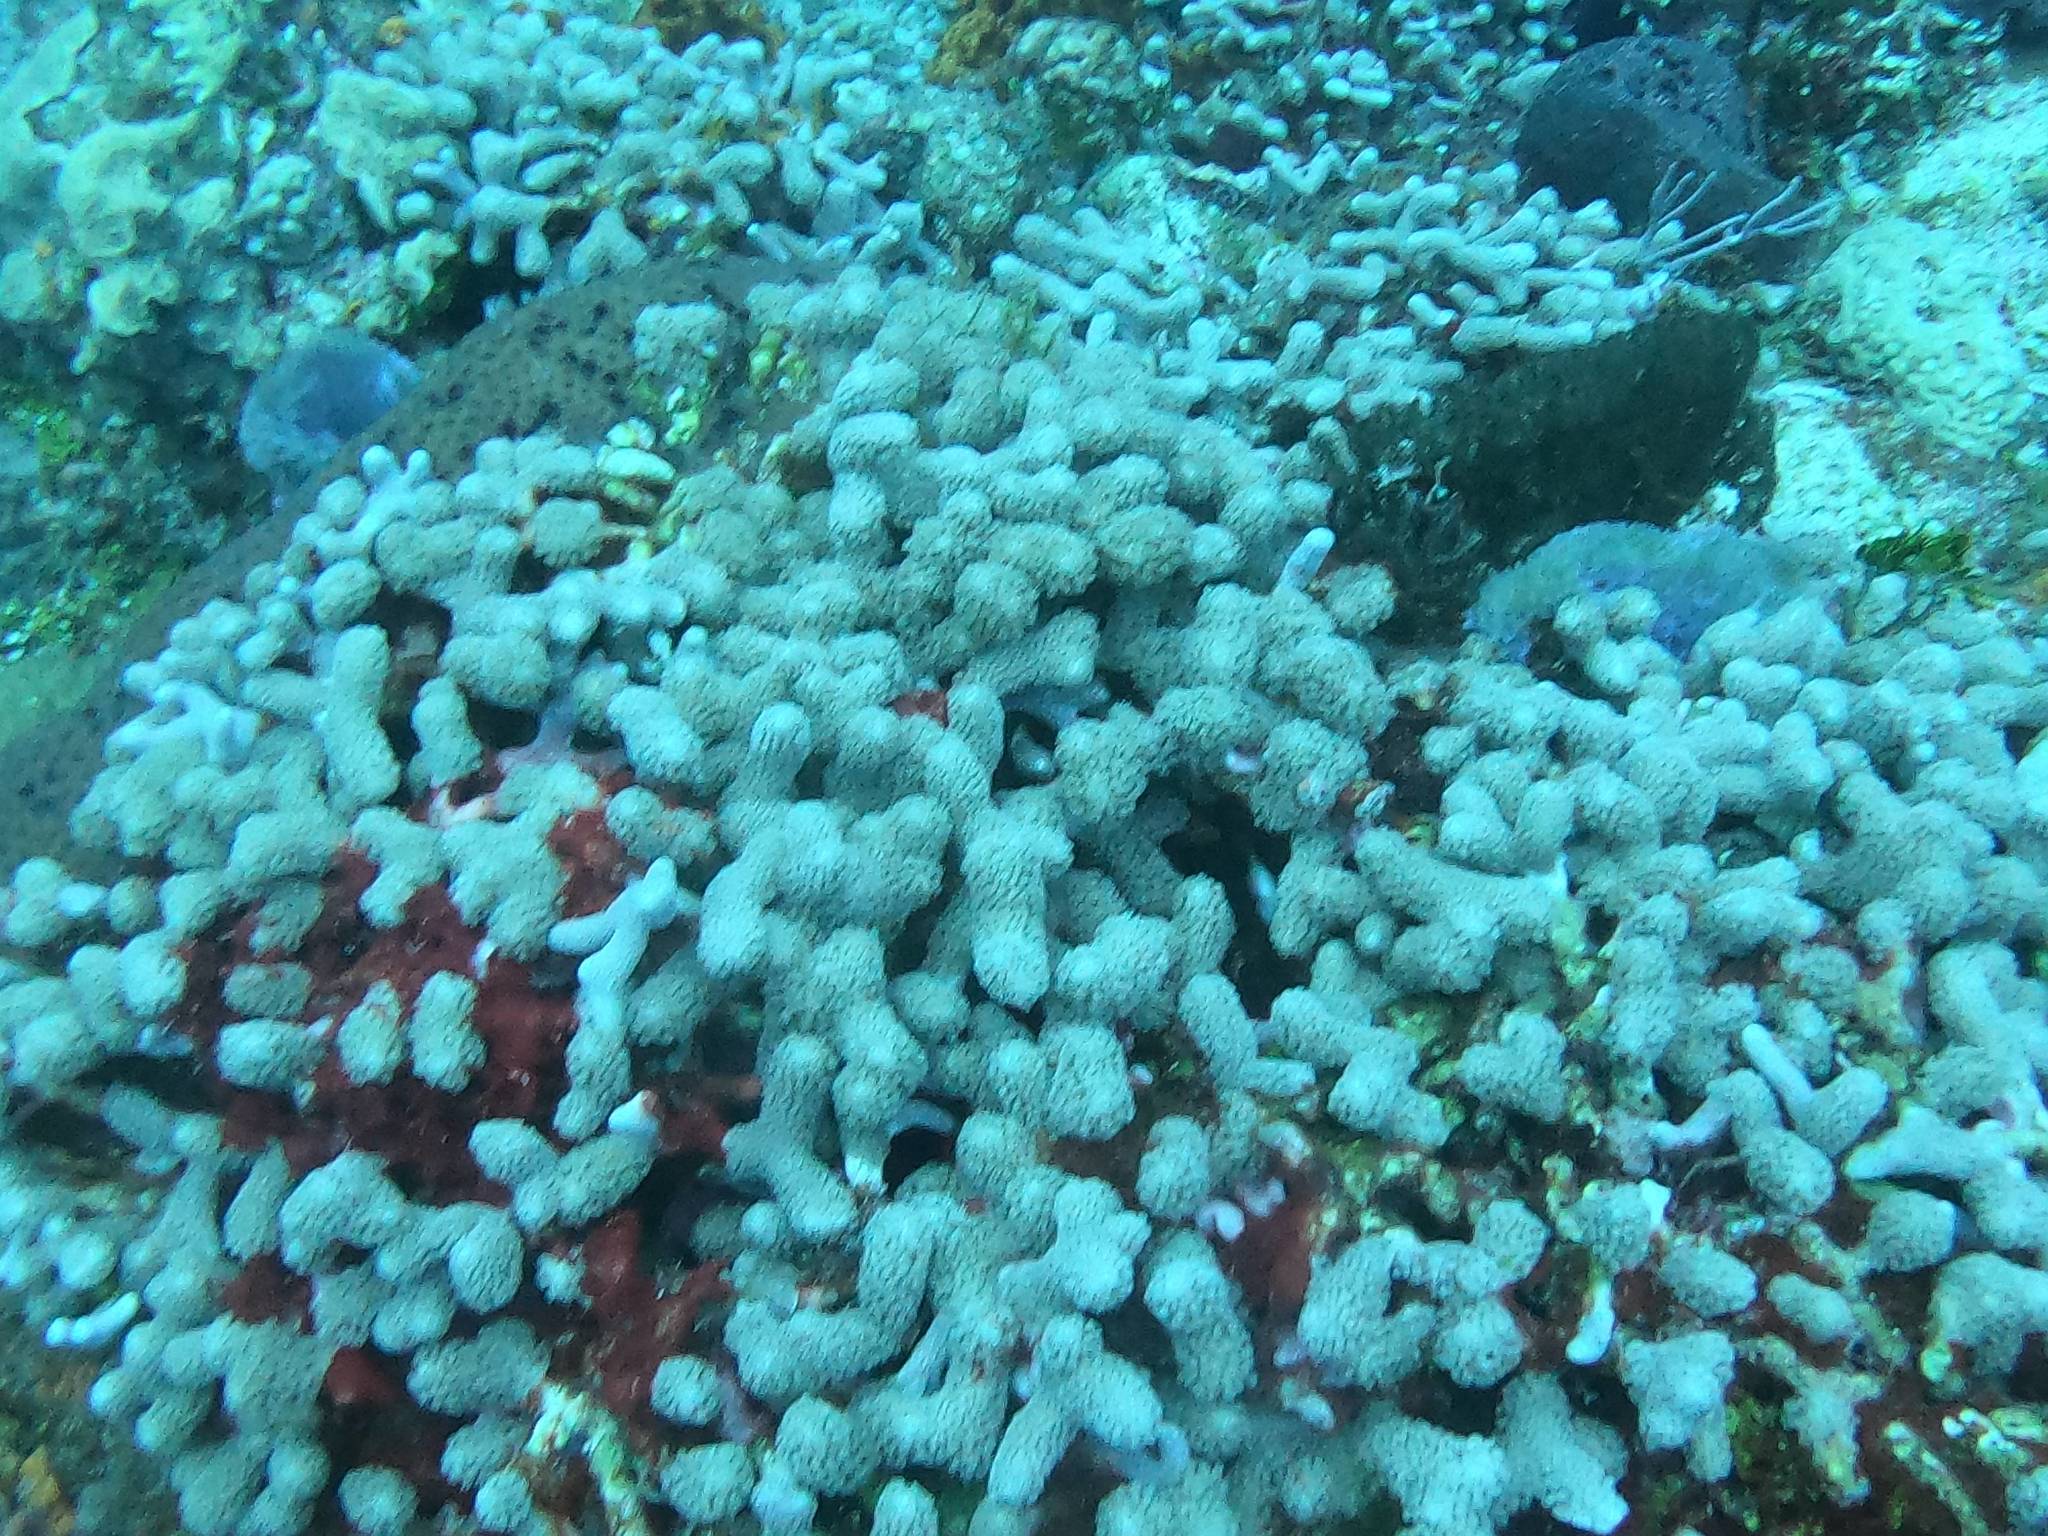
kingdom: Animalia
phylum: Cnidaria
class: Anthozoa
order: Scleractinia
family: Poritidae
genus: Porites
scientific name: Porites porites
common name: Finger coral
